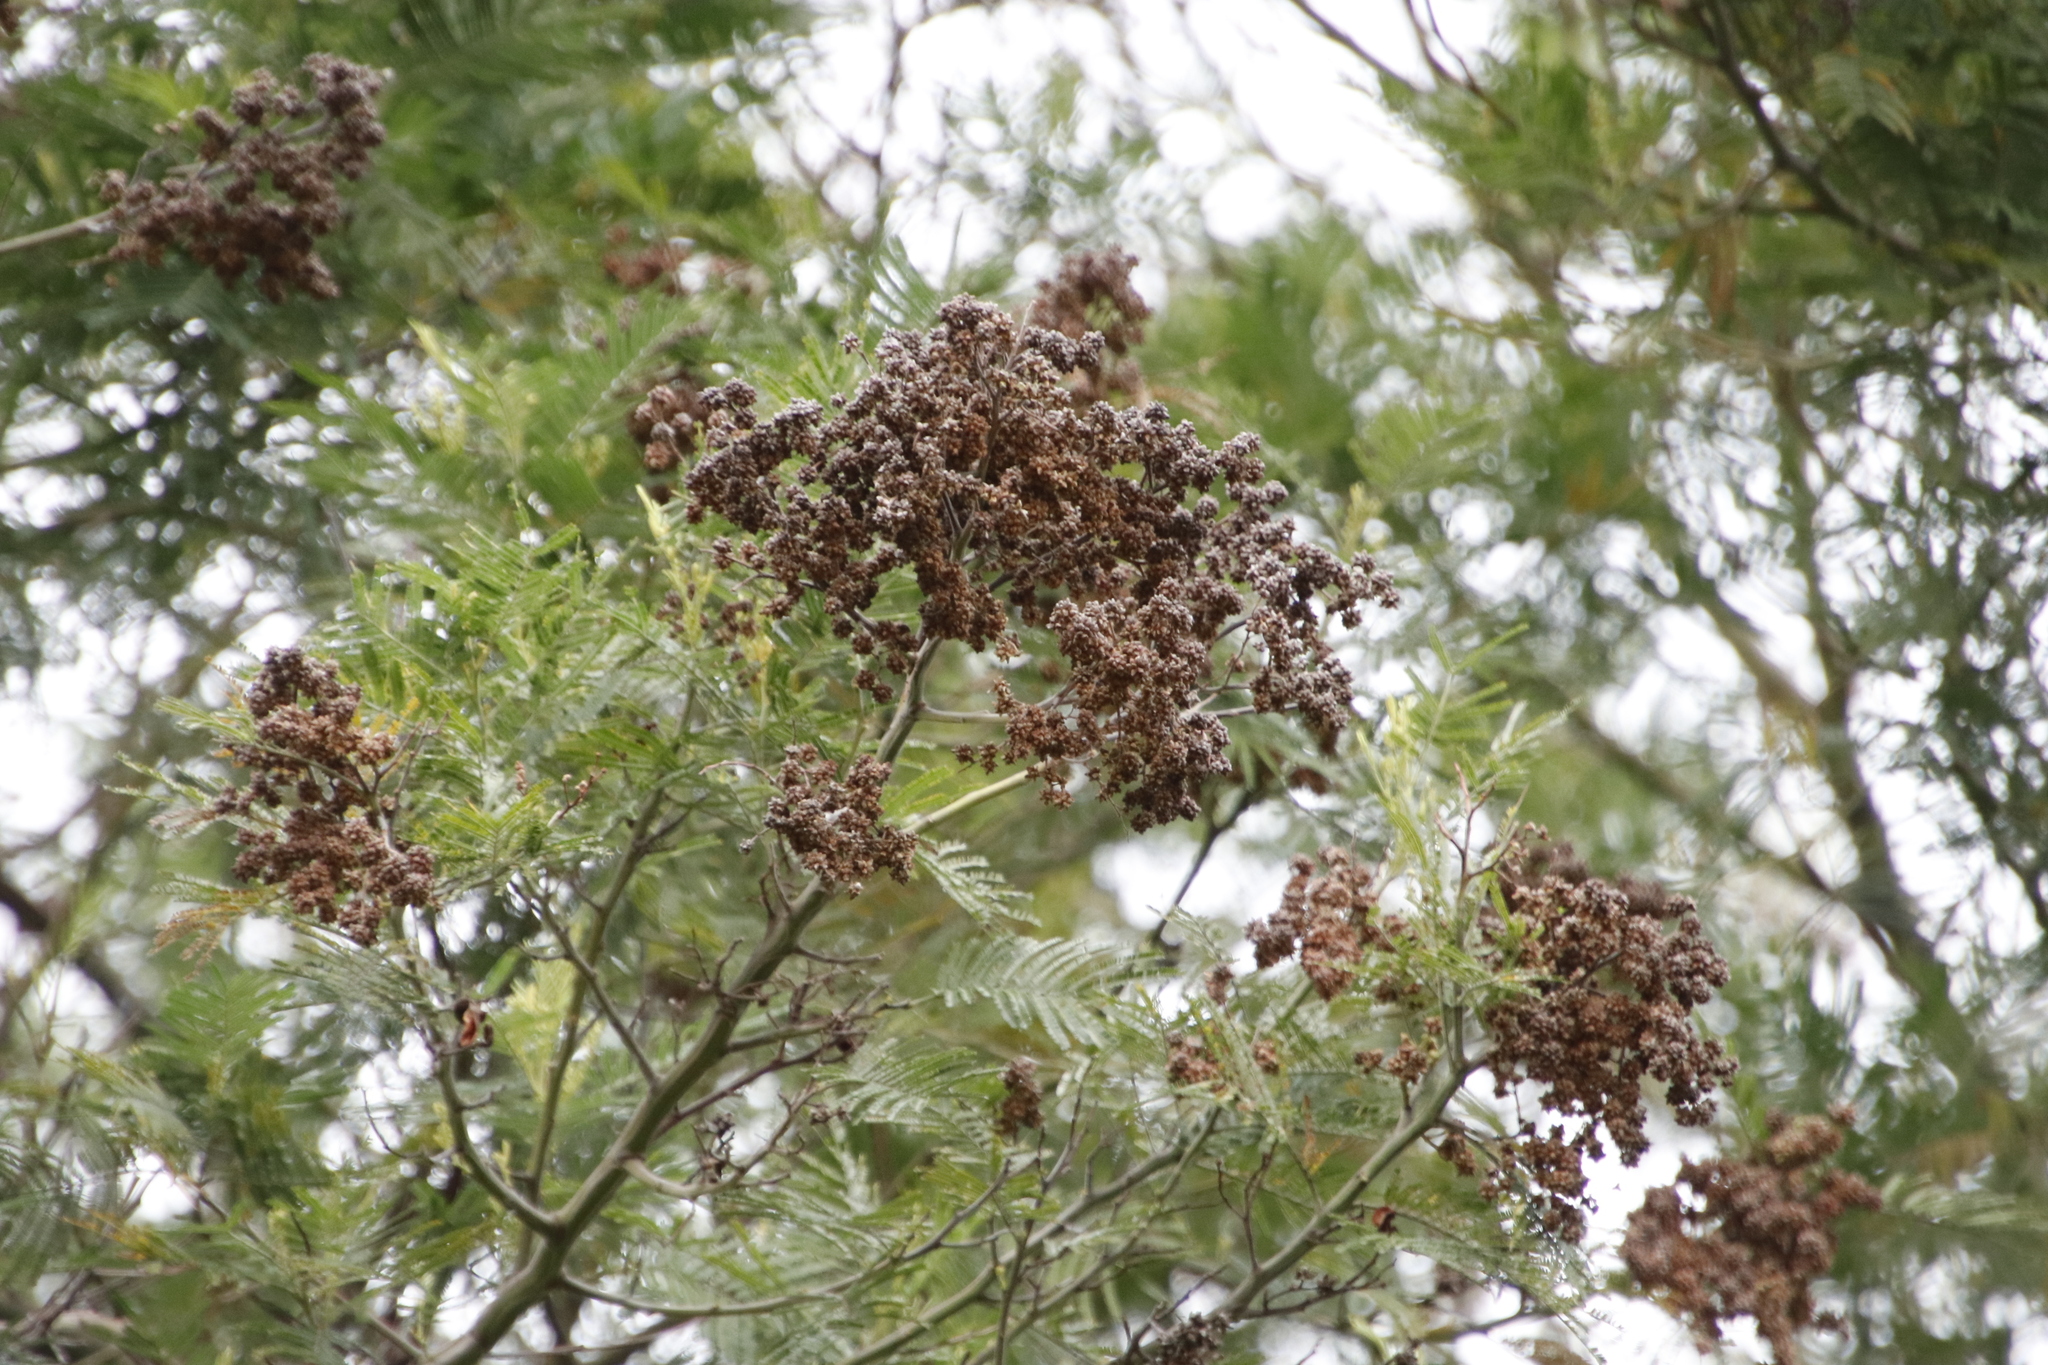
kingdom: Animalia
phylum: Arthropoda
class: Insecta
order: Diptera
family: Cecidomyiidae
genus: Dasineura
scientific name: Dasineura rubiformis
